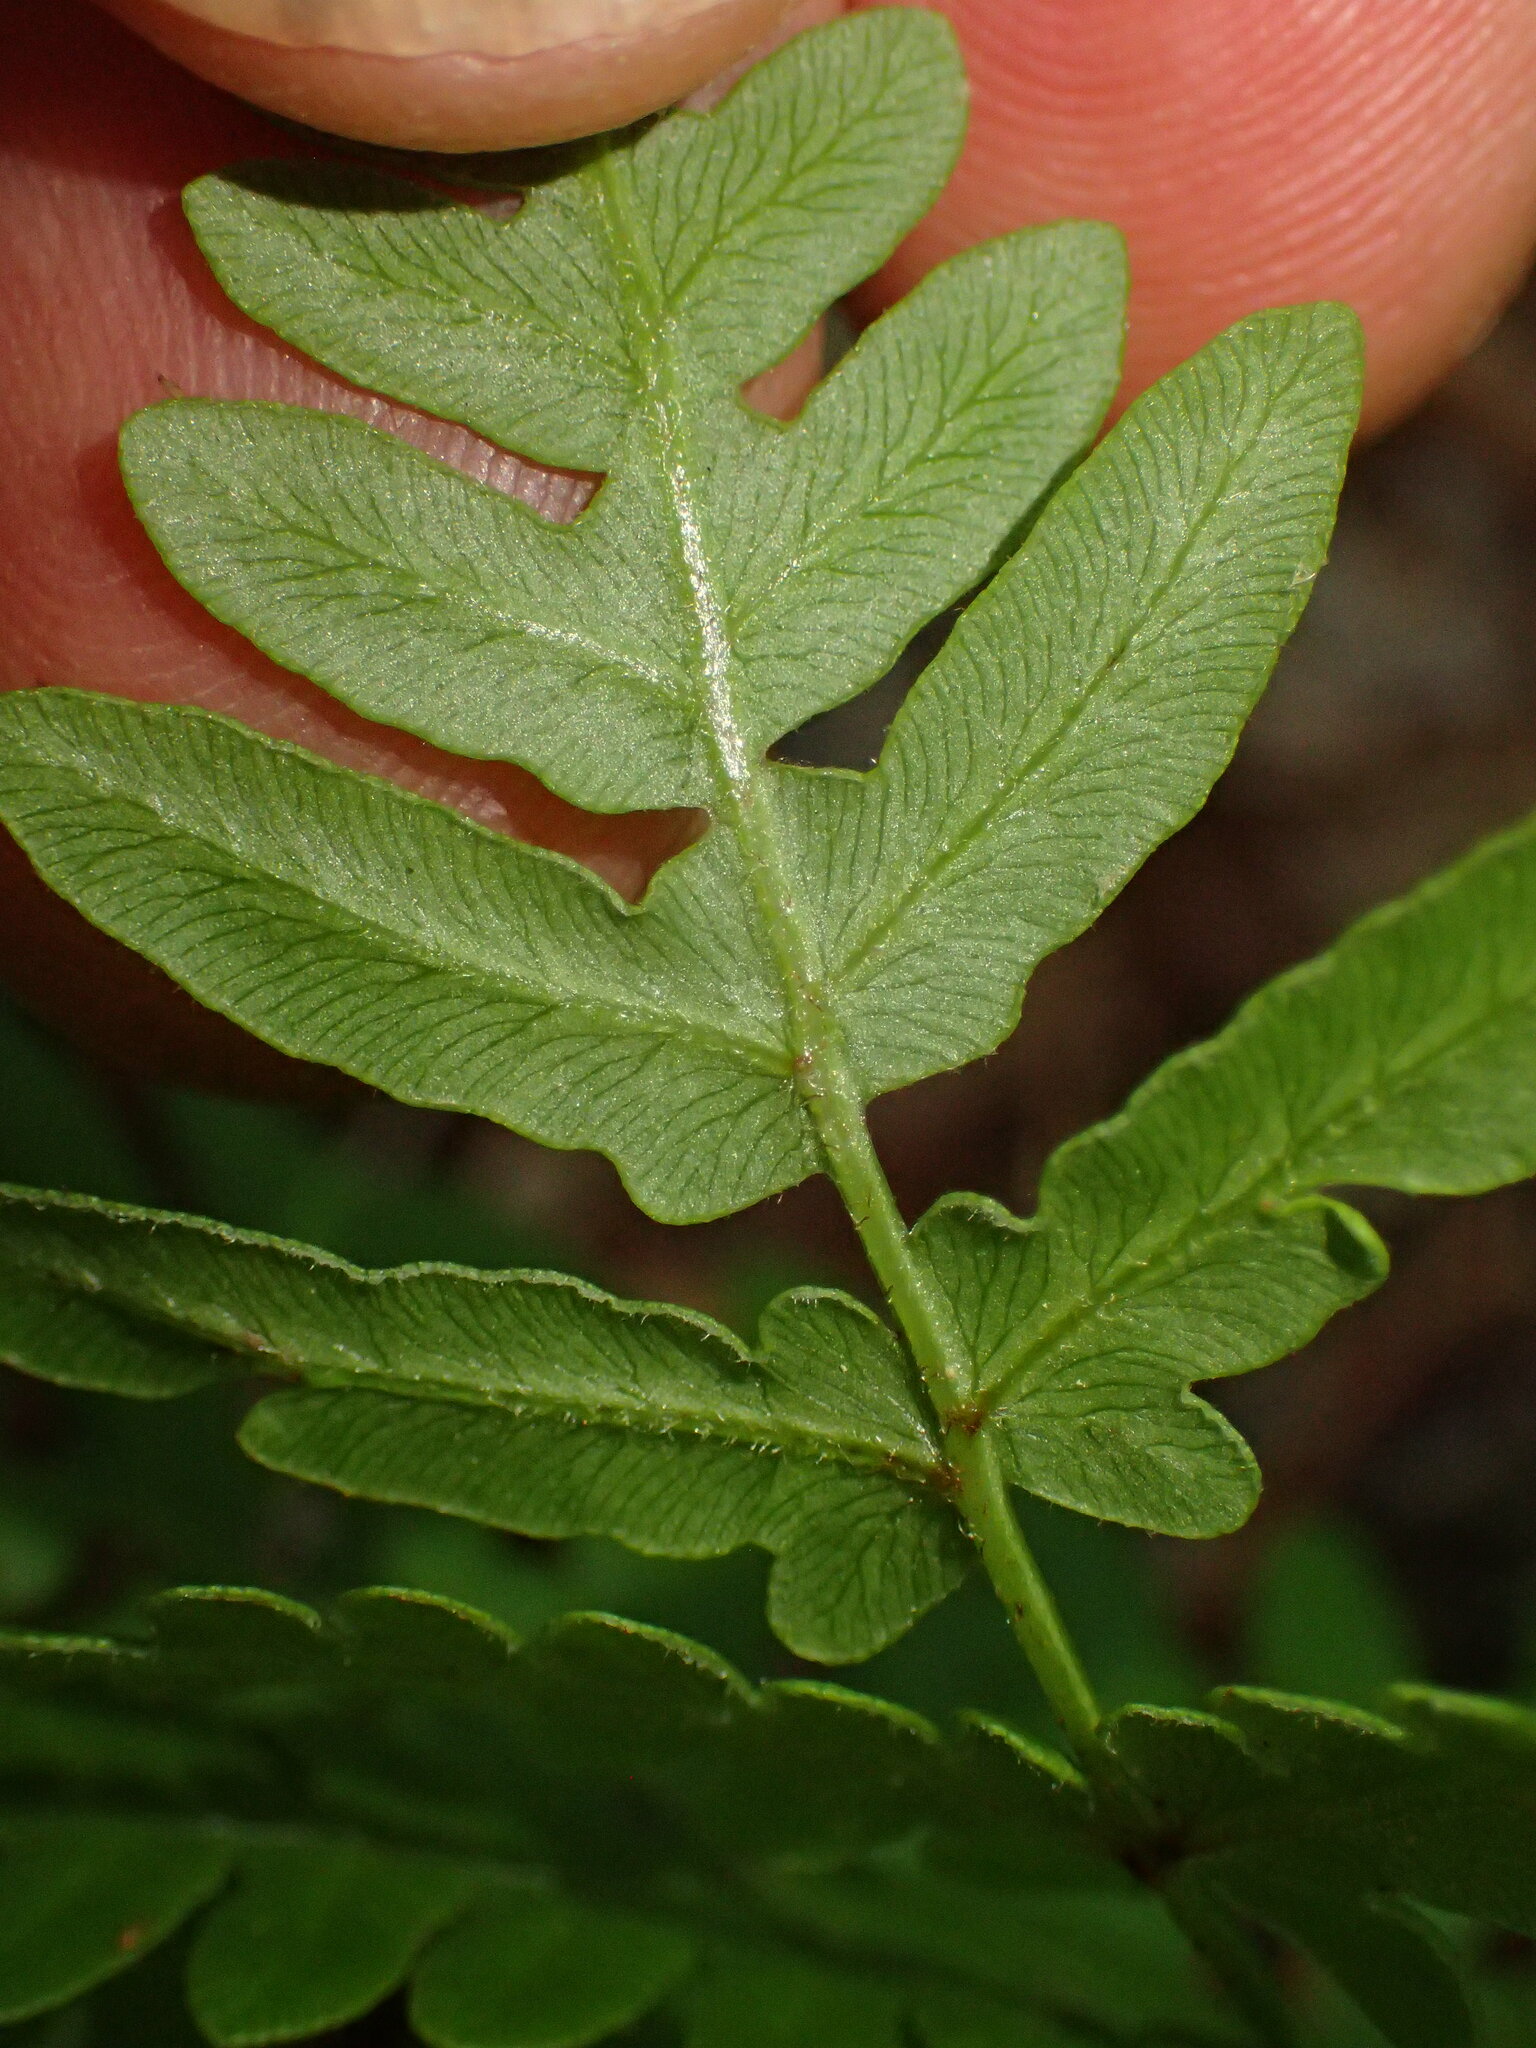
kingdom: Plantae
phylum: Tracheophyta
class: Polypodiopsida
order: Polypodiales
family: Dennstaedtiaceae
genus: Pteridium
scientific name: Pteridium
